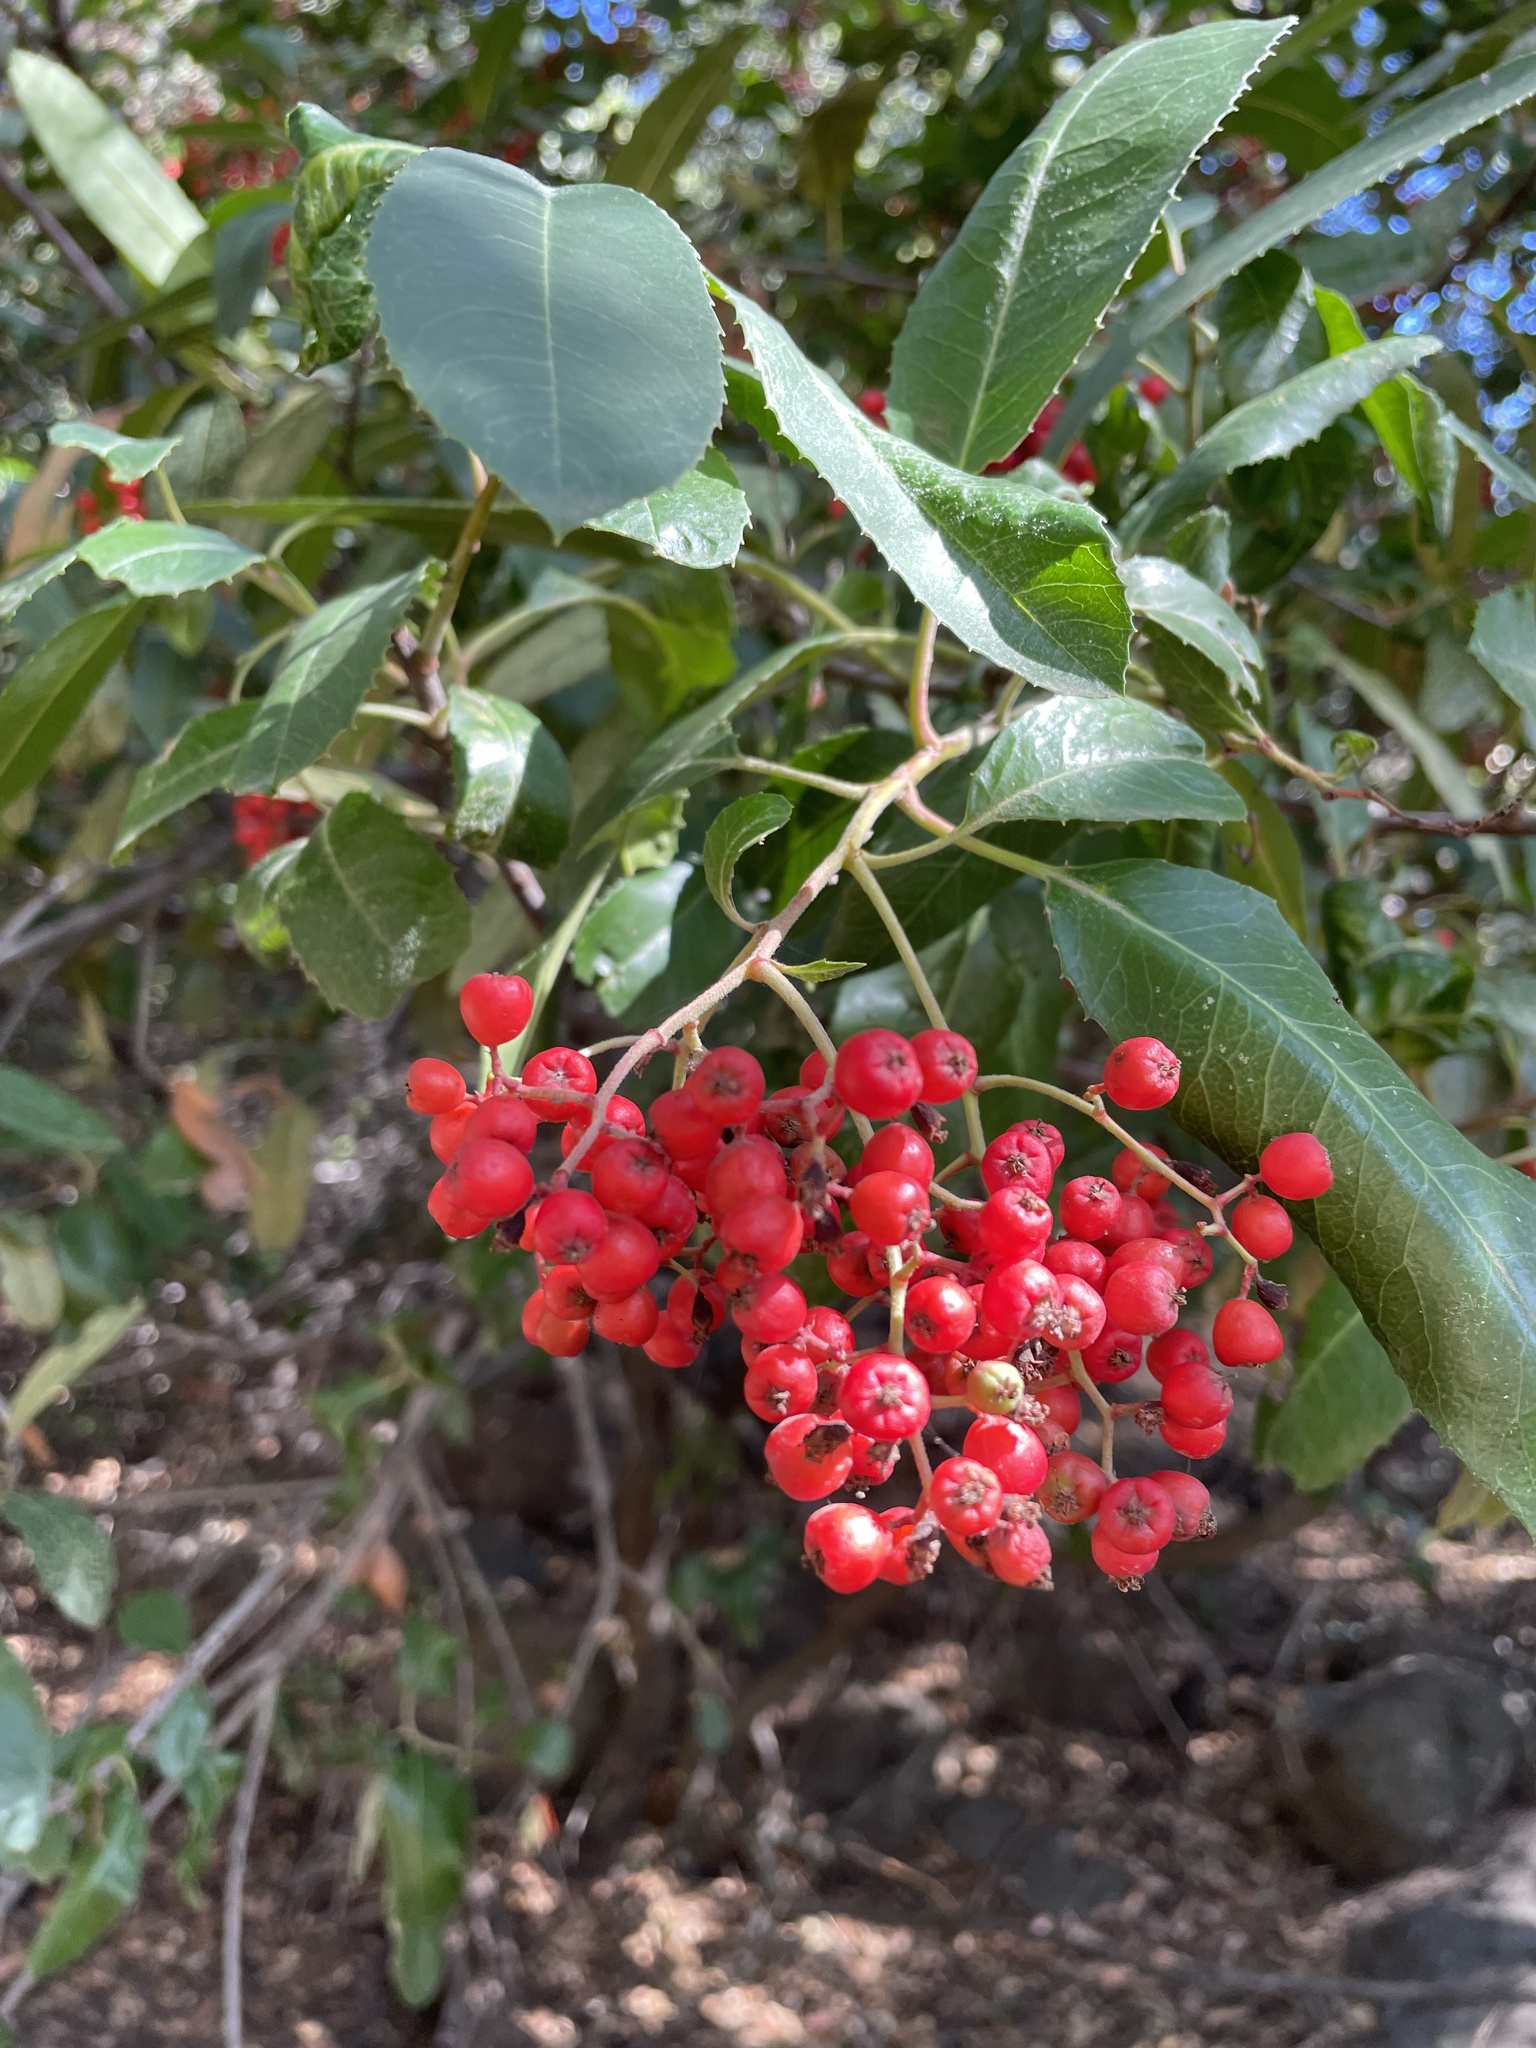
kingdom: Plantae
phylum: Tracheophyta
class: Magnoliopsida
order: Rosales
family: Rosaceae
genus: Heteromeles
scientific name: Heteromeles arbutifolia
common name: California-holly
